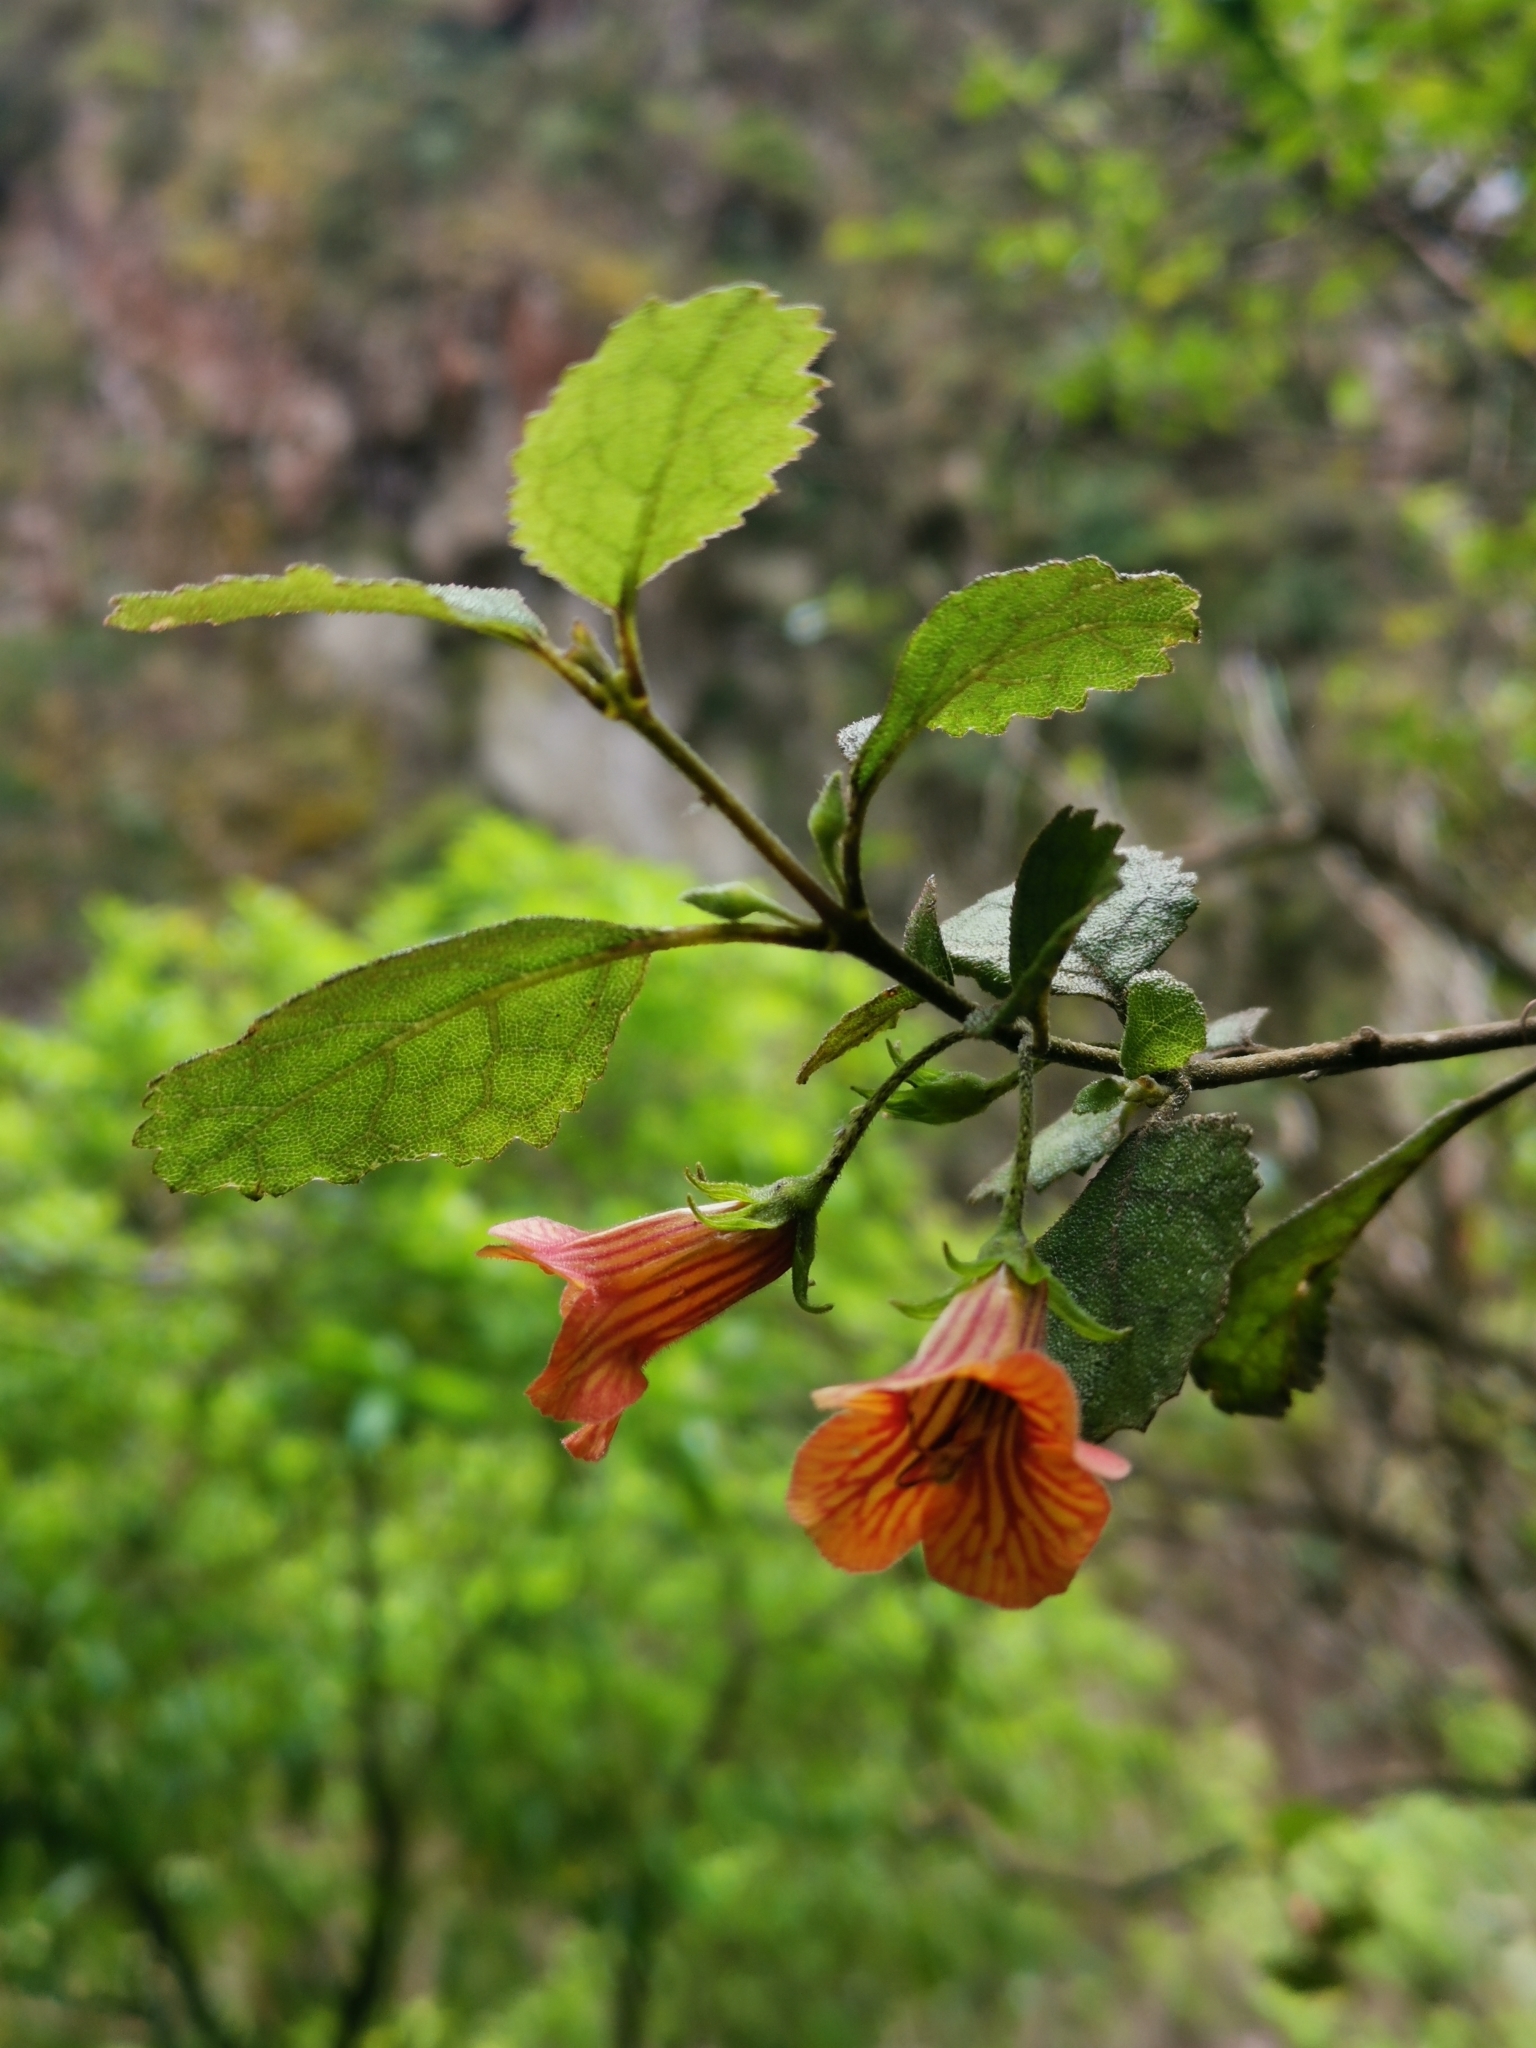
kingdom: Plantae
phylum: Tracheophyta
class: Magnoliopsida
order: Lamiales
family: Gesneriaceae
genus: Rhabdothamnus
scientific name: Rhabdothamnus solandri
